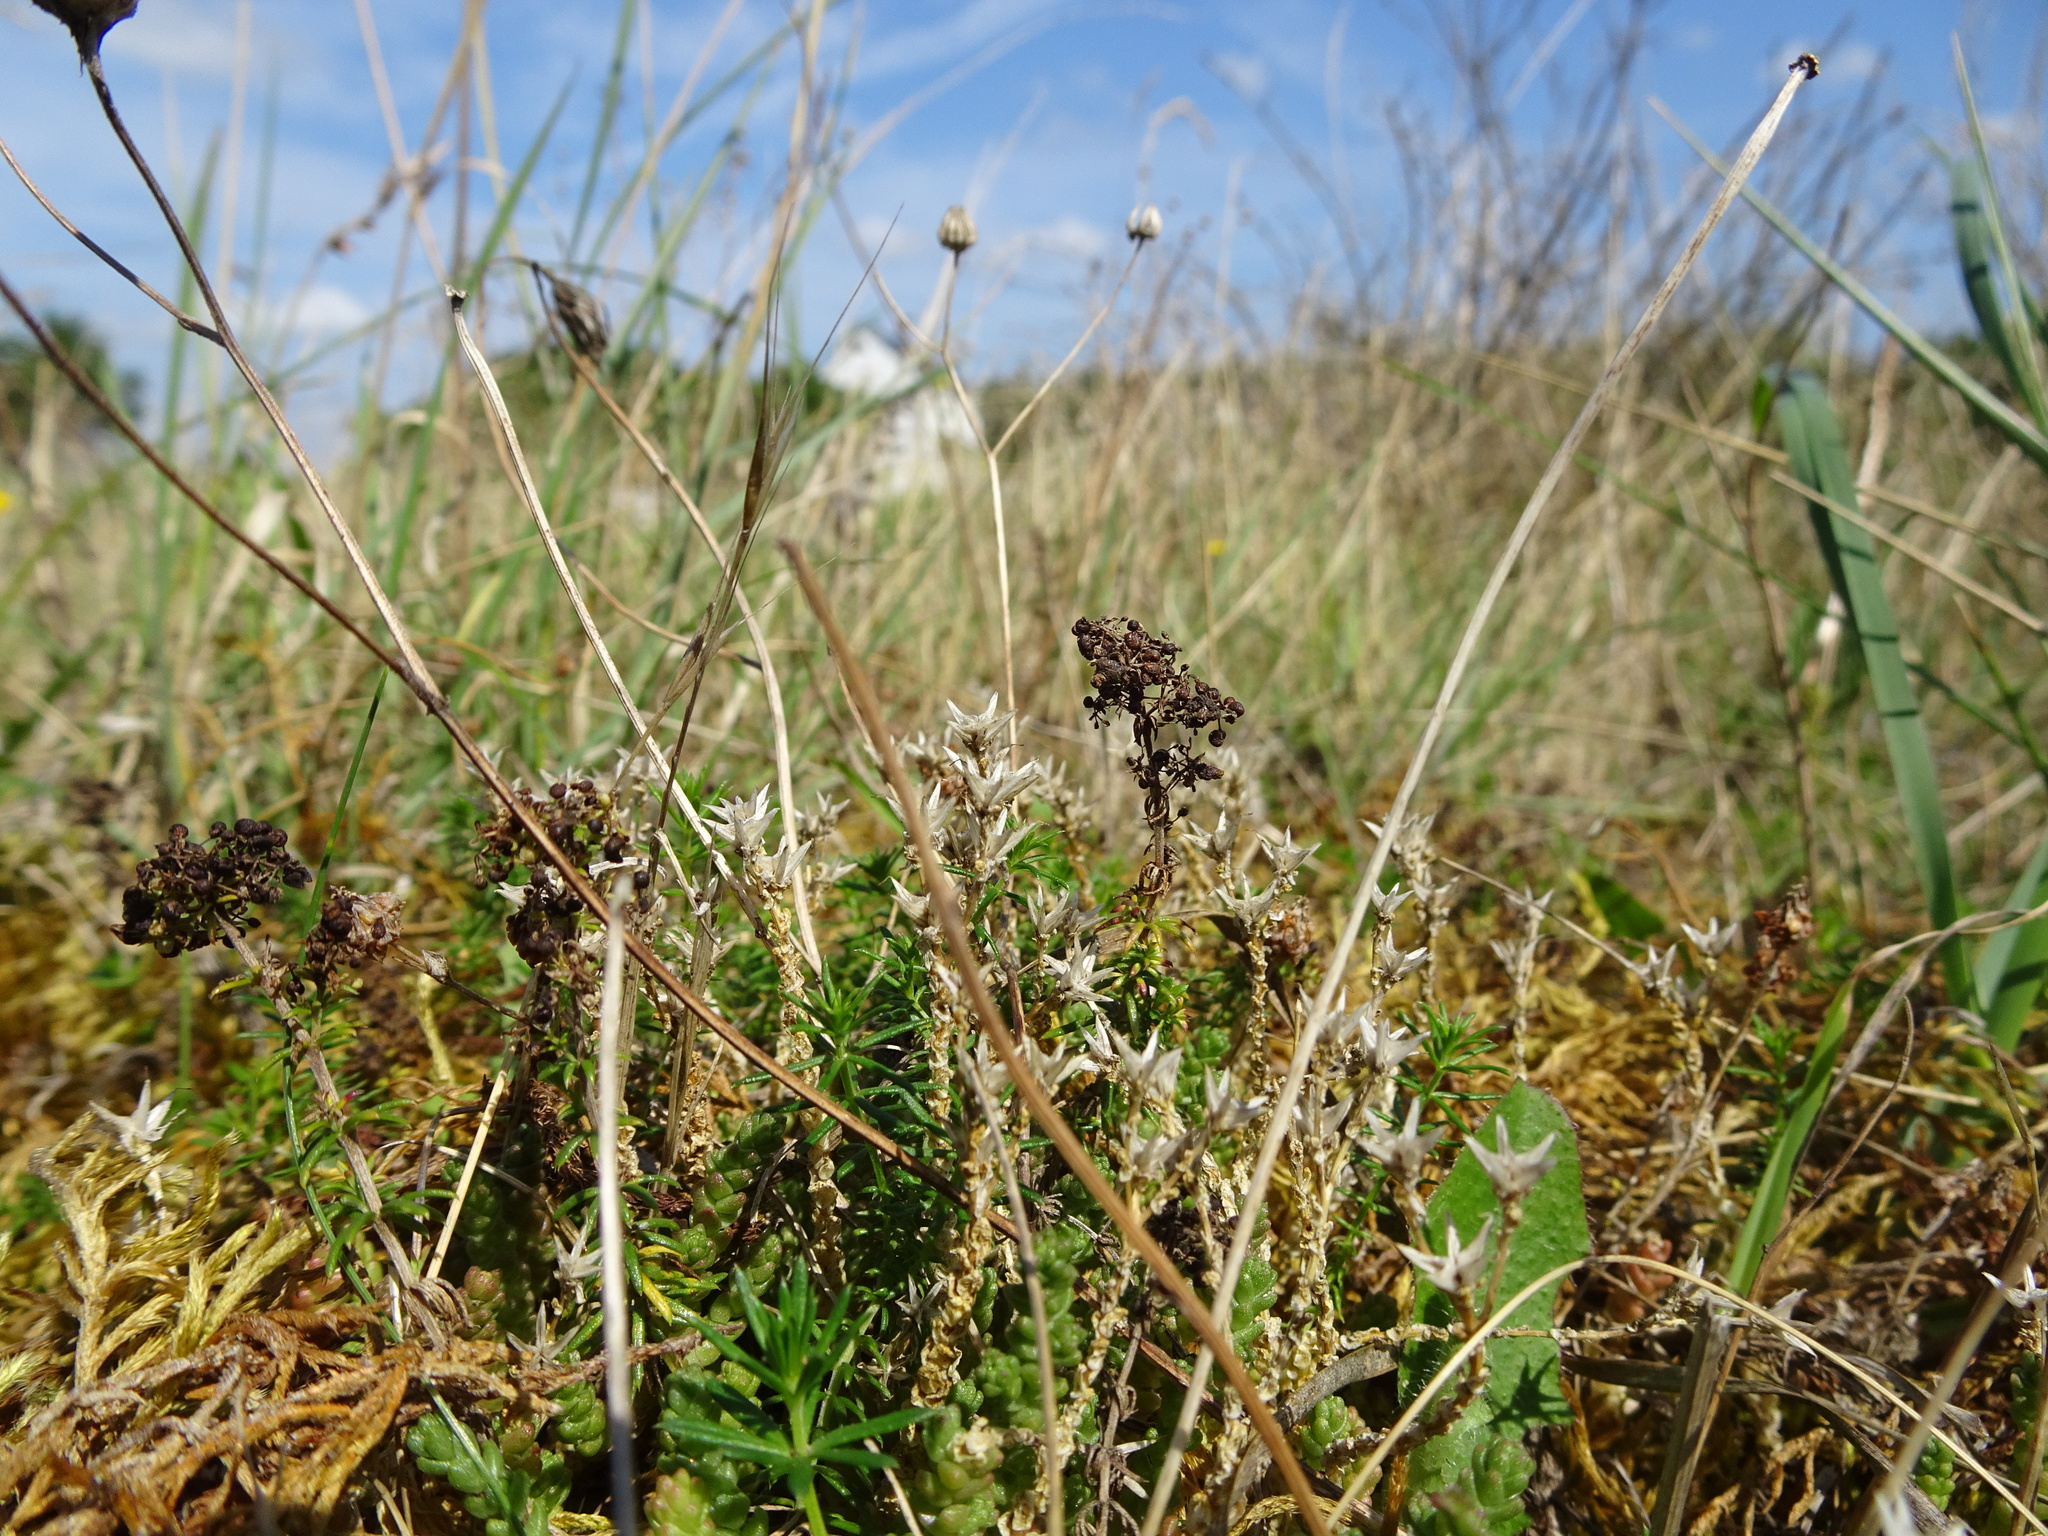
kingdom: Plantae
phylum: Tracheophyta
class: Magnoliopsida
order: Saxifragales
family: Crassulaceae
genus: Sedum
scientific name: Sedum acre
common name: Biting stonecrop
